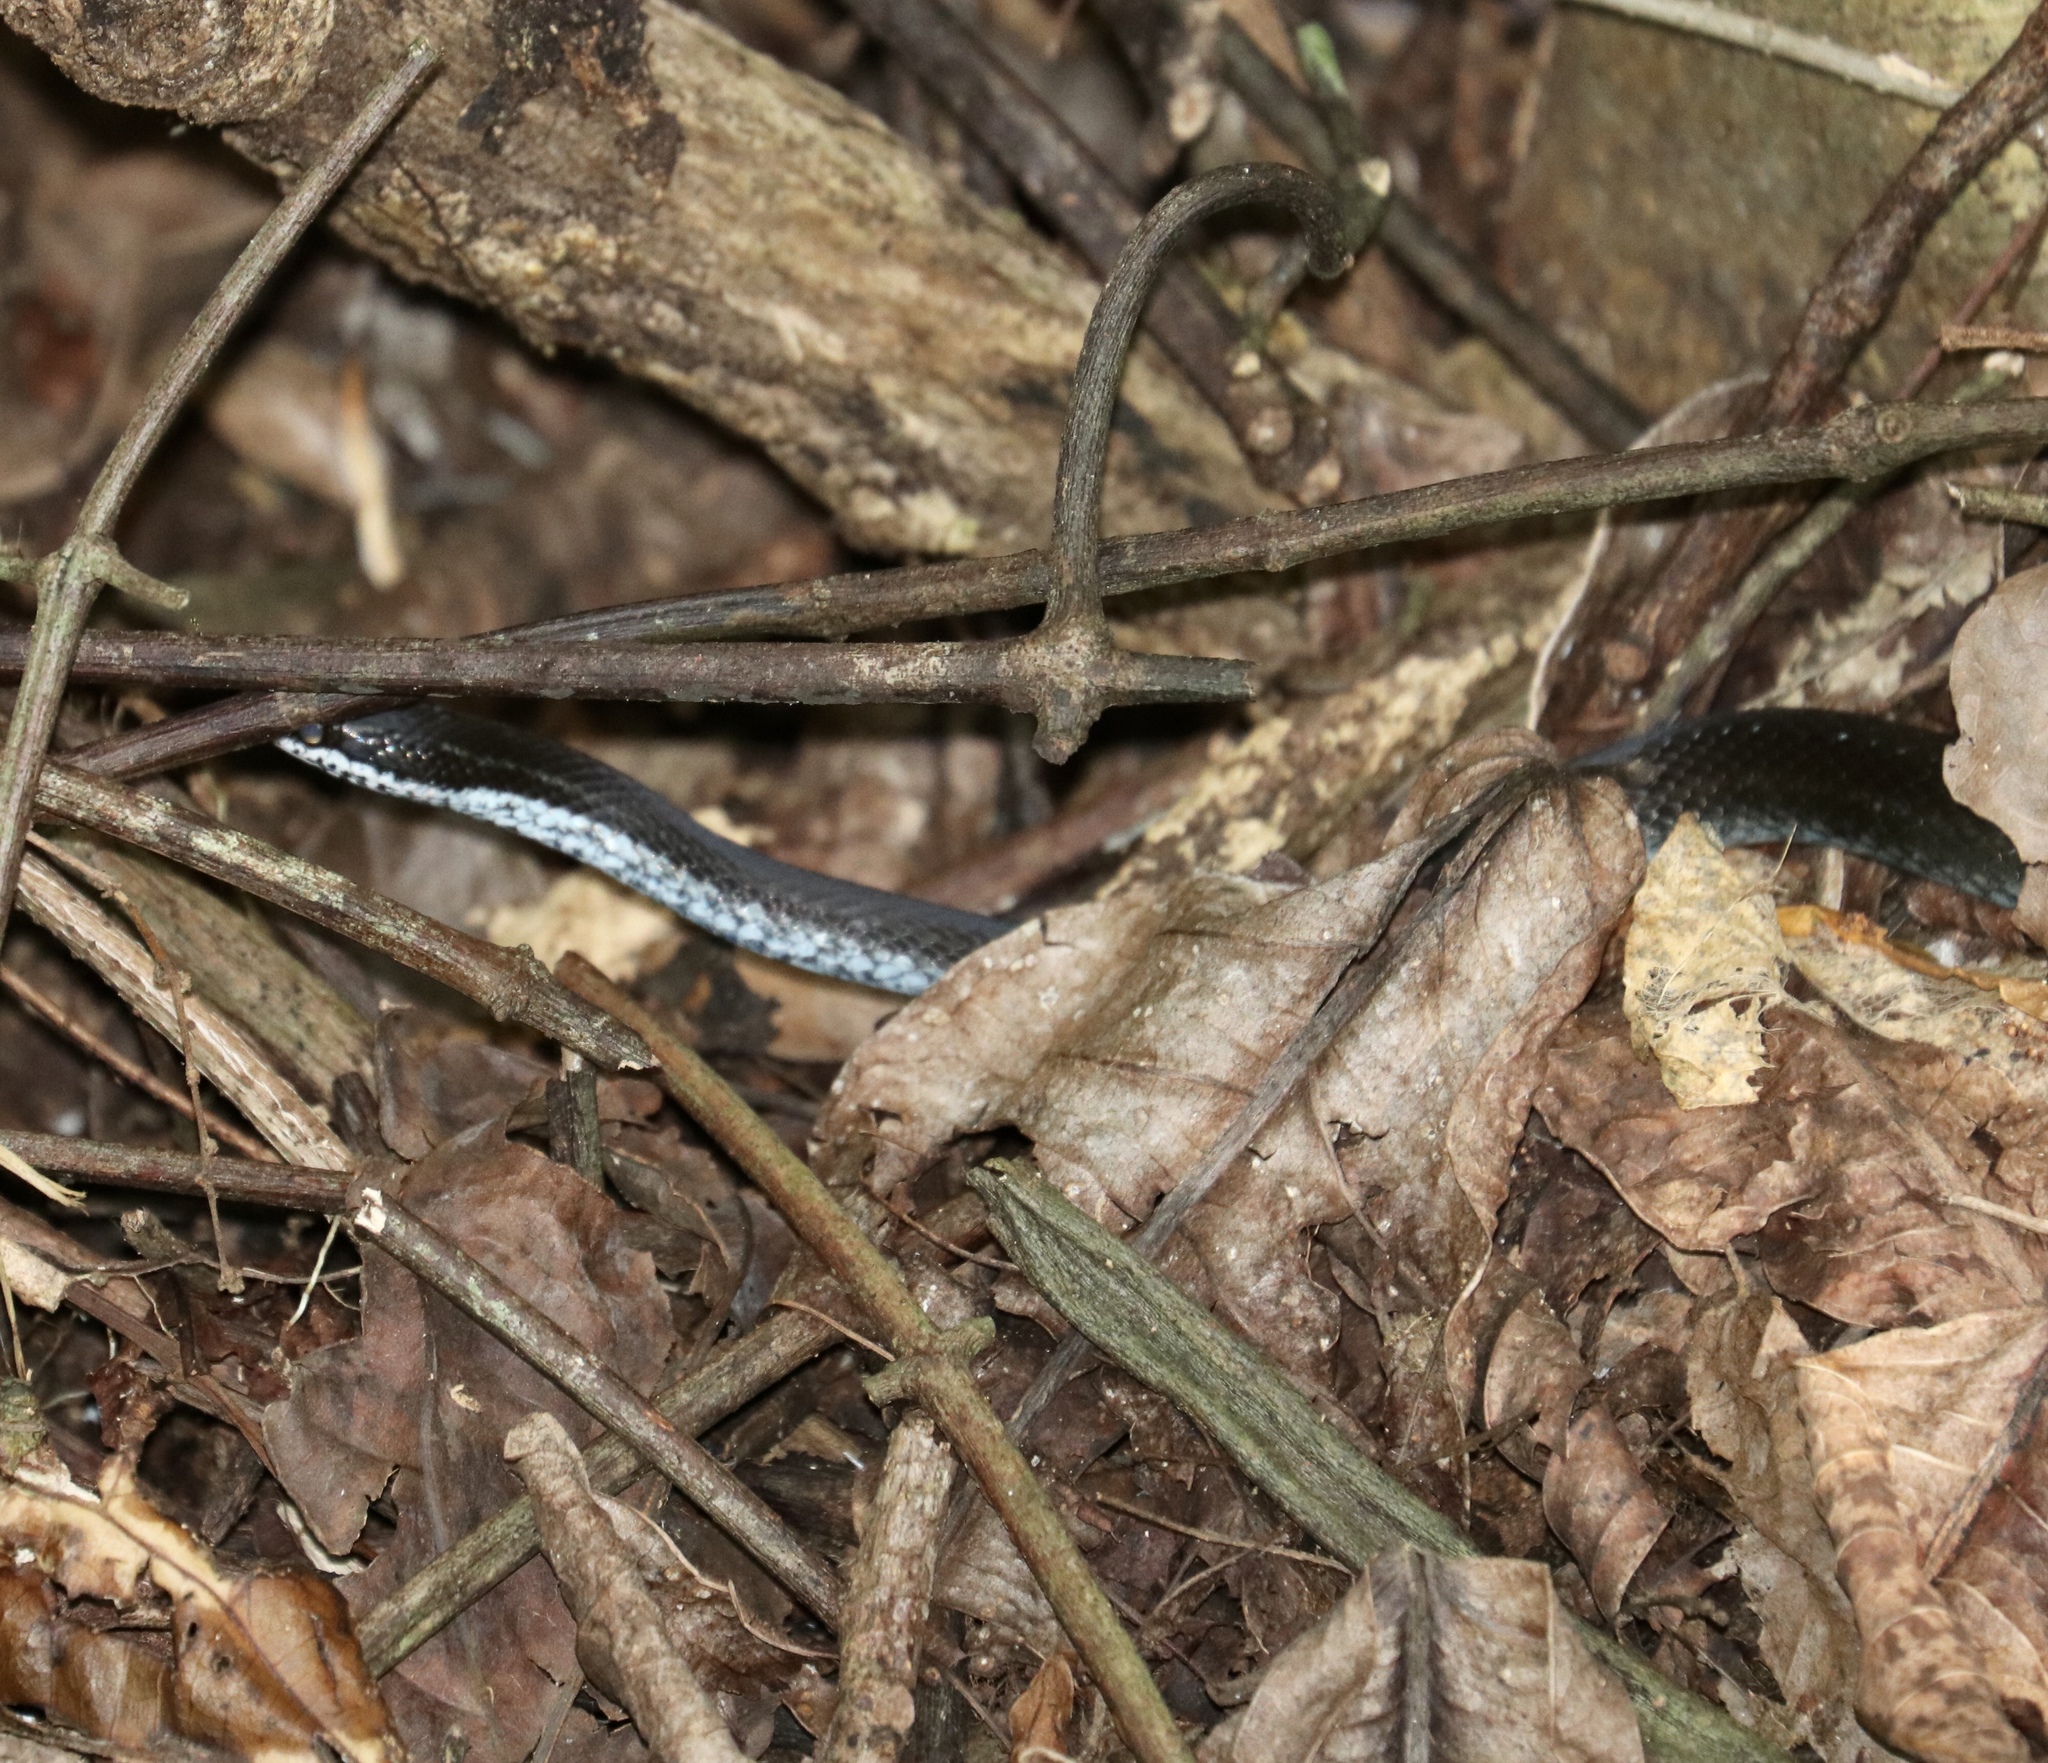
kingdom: Animalia
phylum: Chordata
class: Squamata
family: Colubridae
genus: Hypsirhynchus
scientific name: Hypsirhynchus parvifrons
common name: Cope's antilles snake
